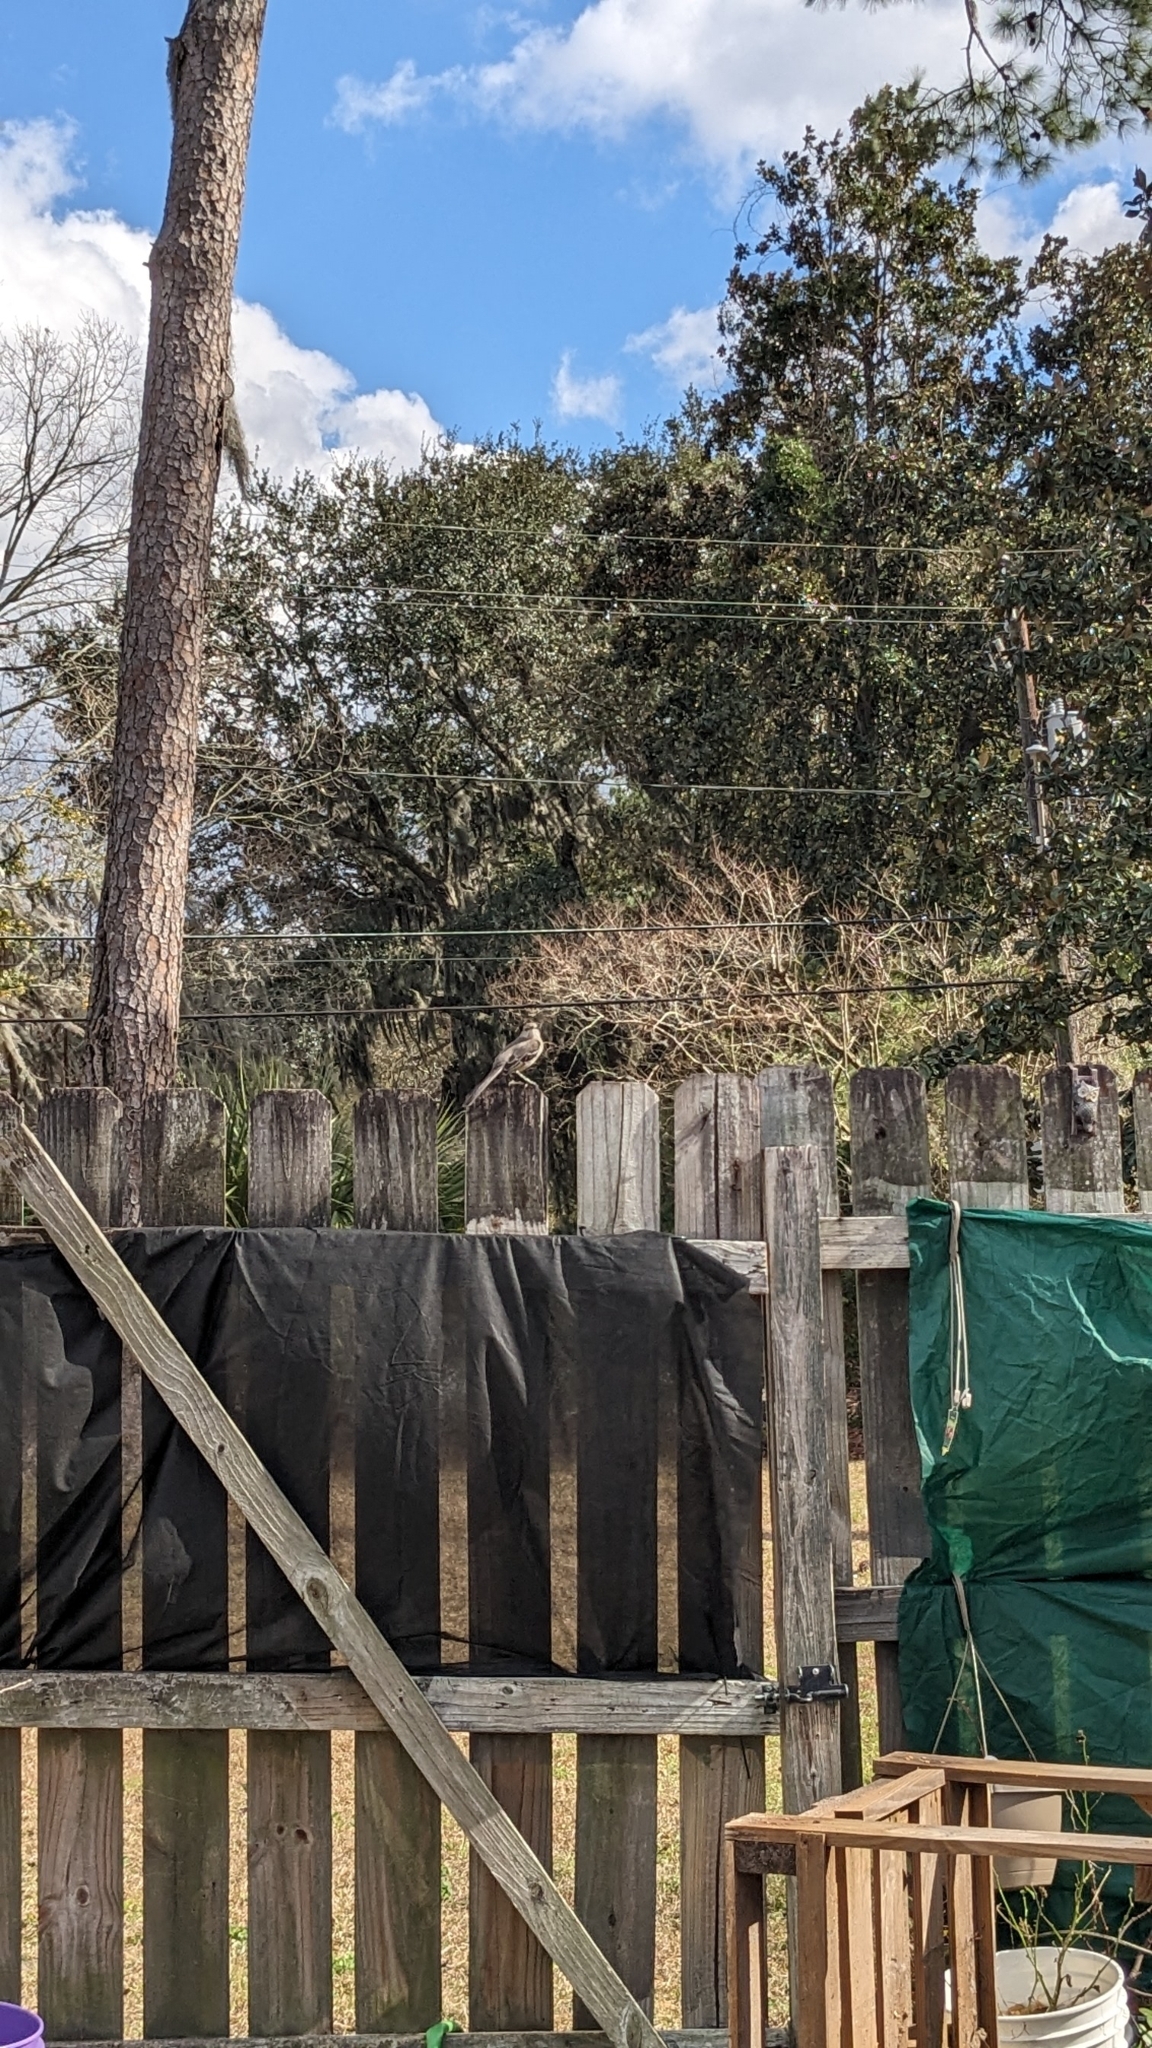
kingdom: Animalia
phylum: Chordata
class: Aves
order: Passeriformes
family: Mimidae
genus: Mimus
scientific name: Mimus polyglottos
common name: Northern mockingbird
